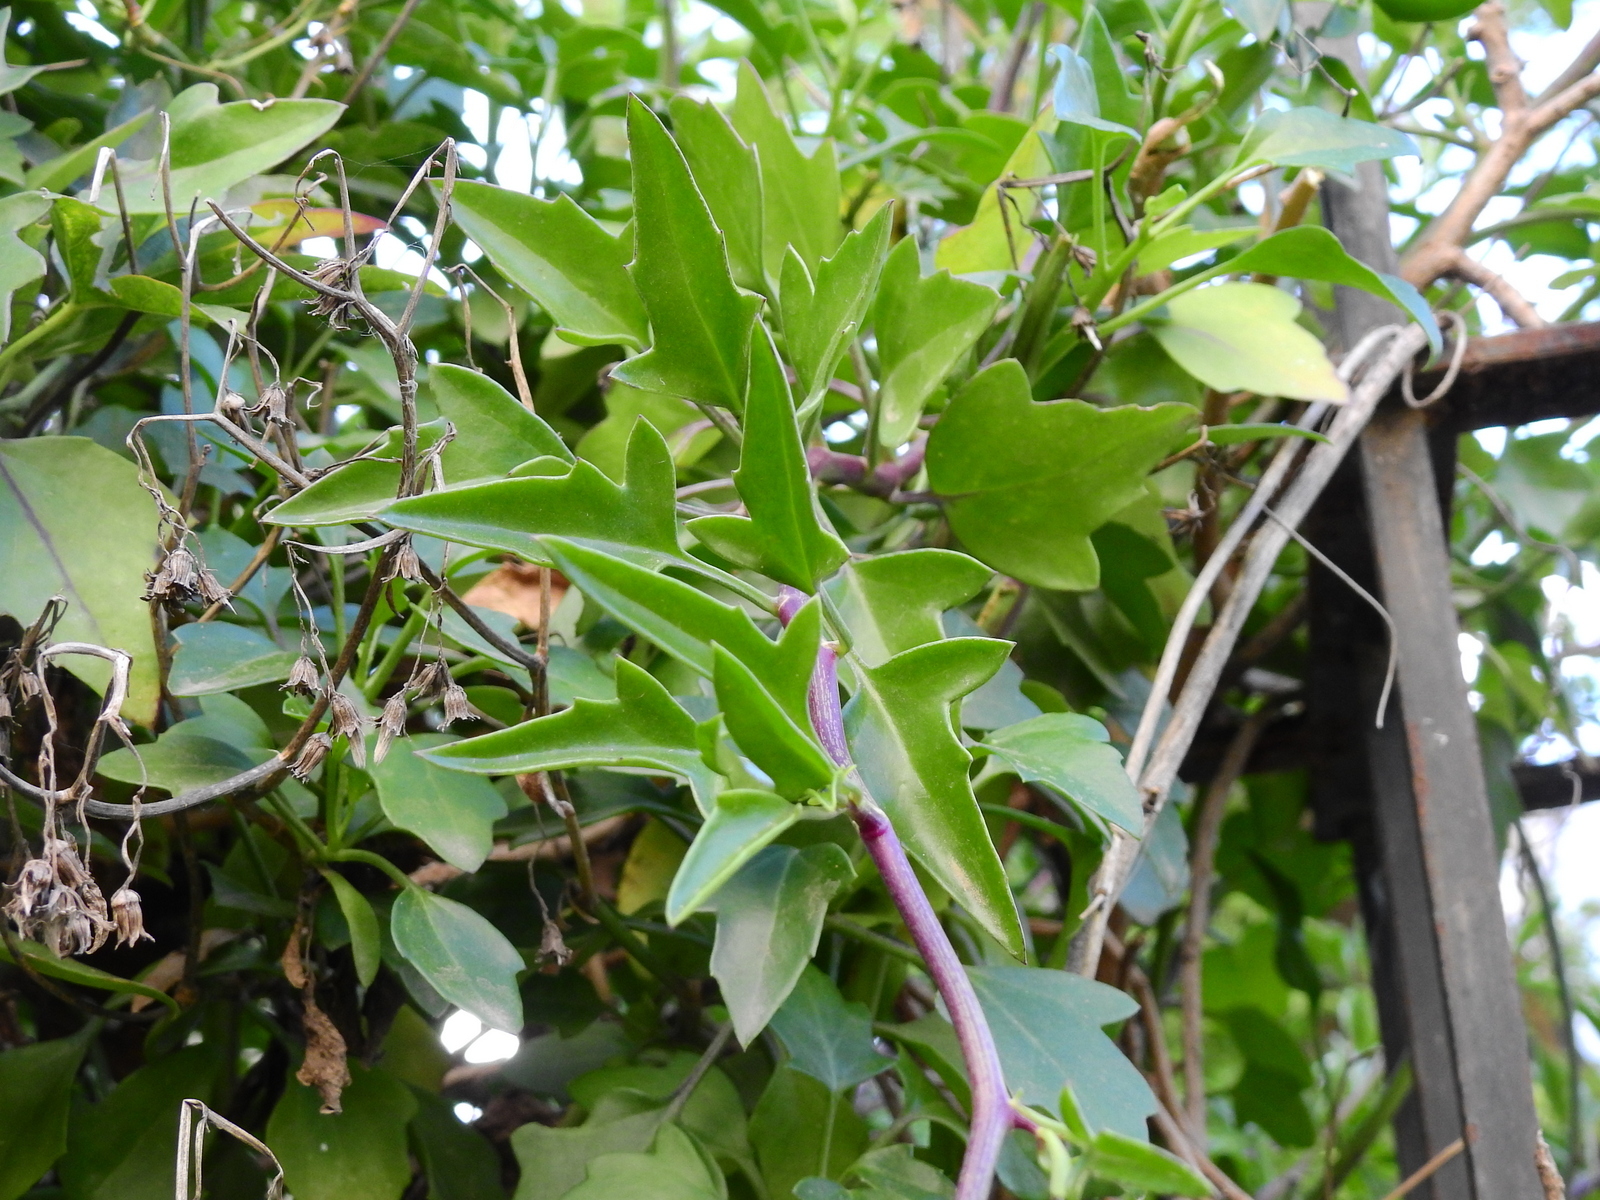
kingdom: Plantae
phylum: Tracheophyta
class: Magnoliopsida
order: Asterales
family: Asteraceae
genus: Senecio
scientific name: Senecio angulatus
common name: Climbing groundsel
